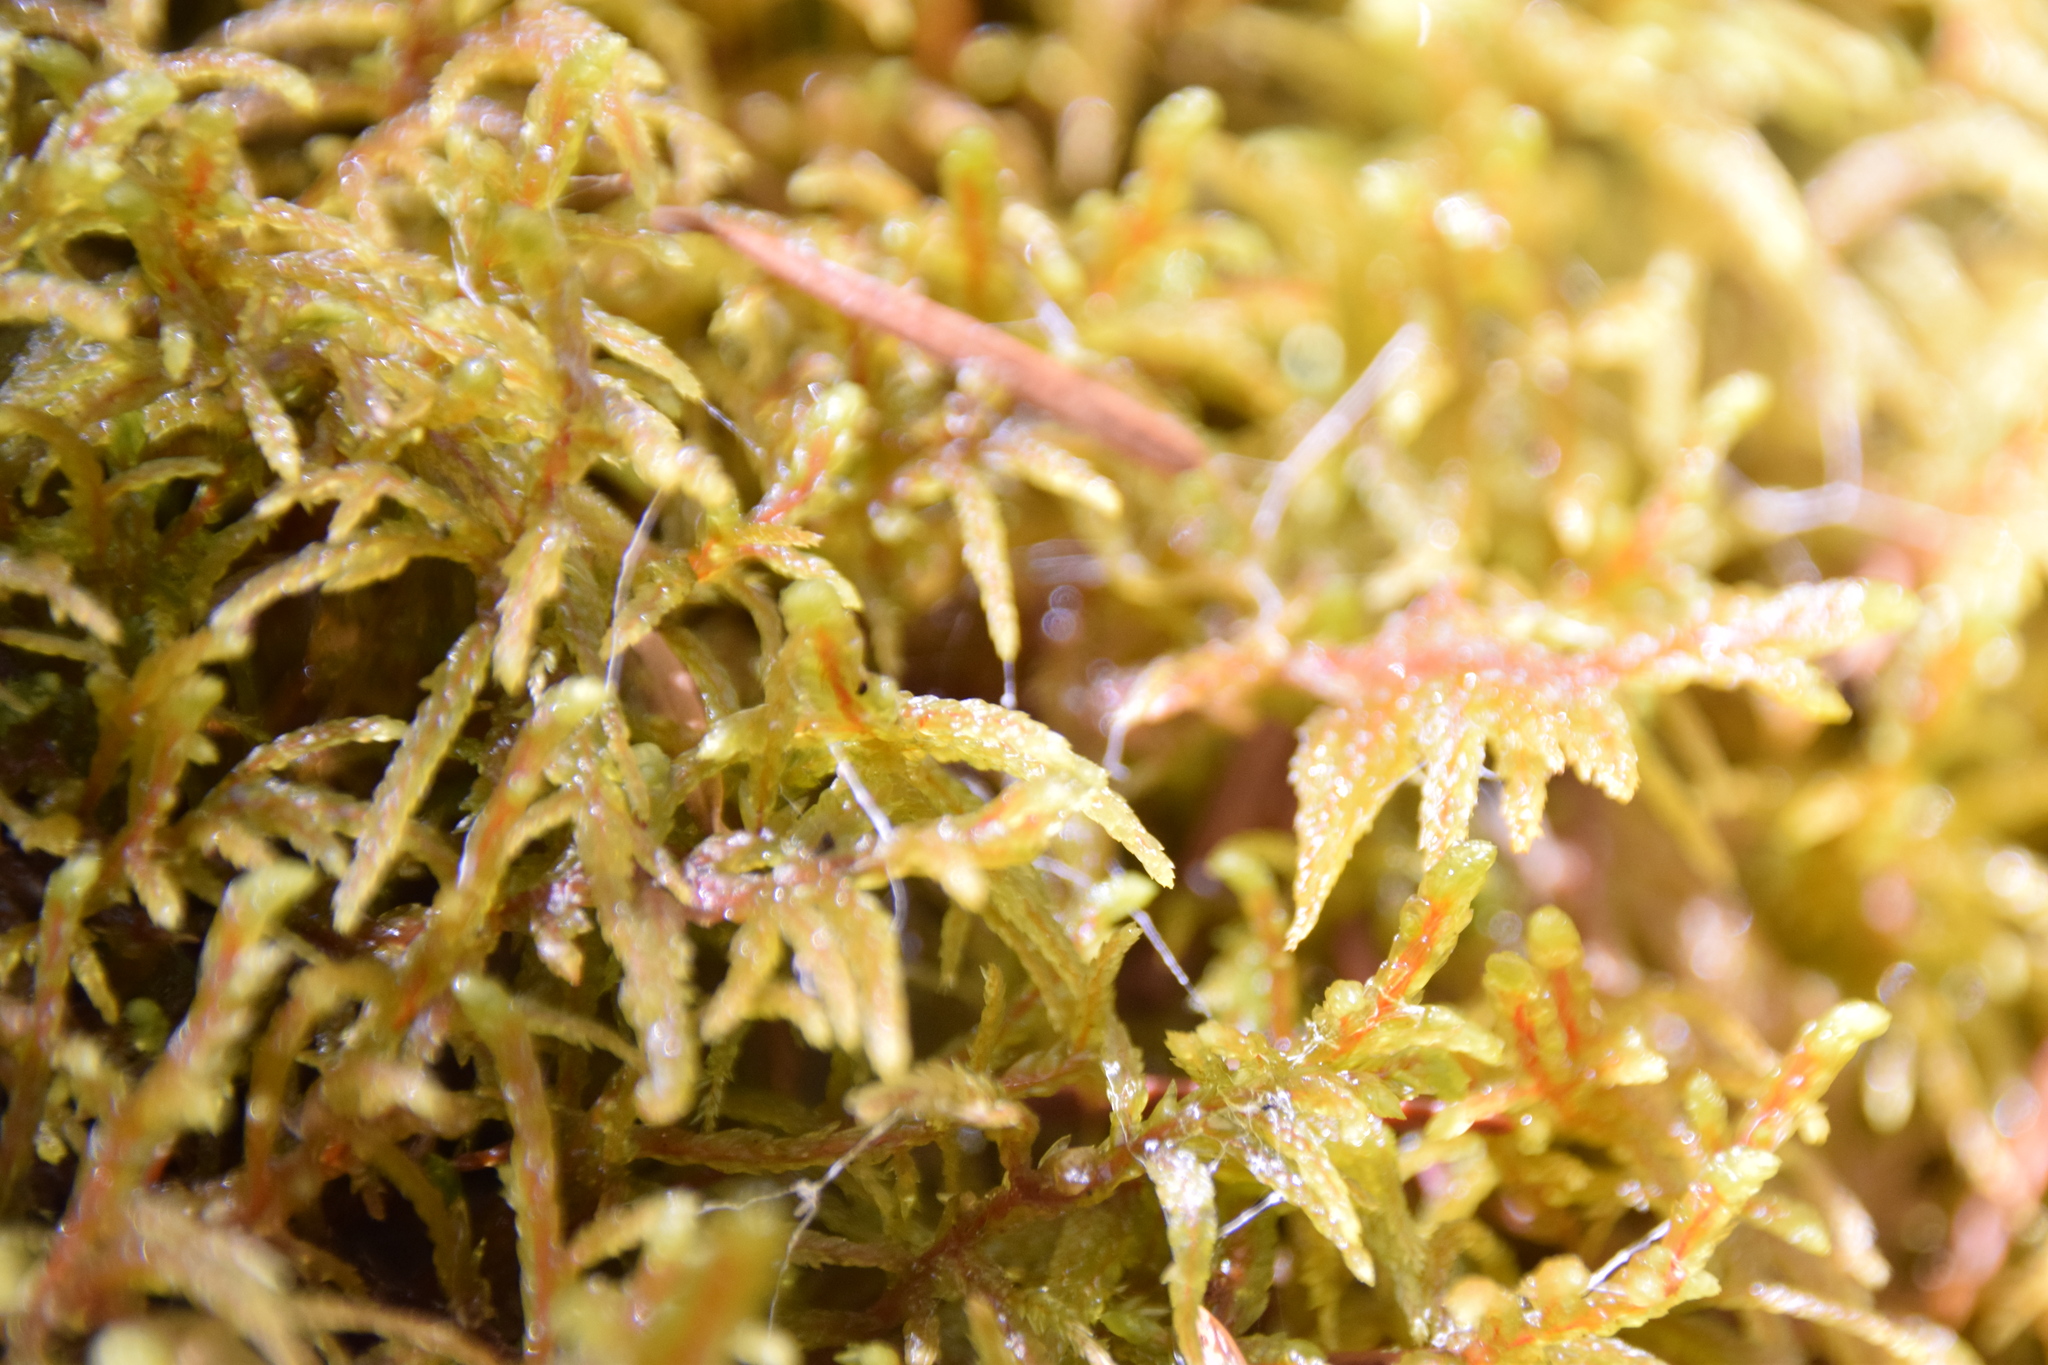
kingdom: Plantae
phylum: Bryophyta
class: Bryopsida
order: Hypnales
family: Hylocomiaceae
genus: Pleurozium
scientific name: Pleurozium schreberi
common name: Red-stemmed feather moss
